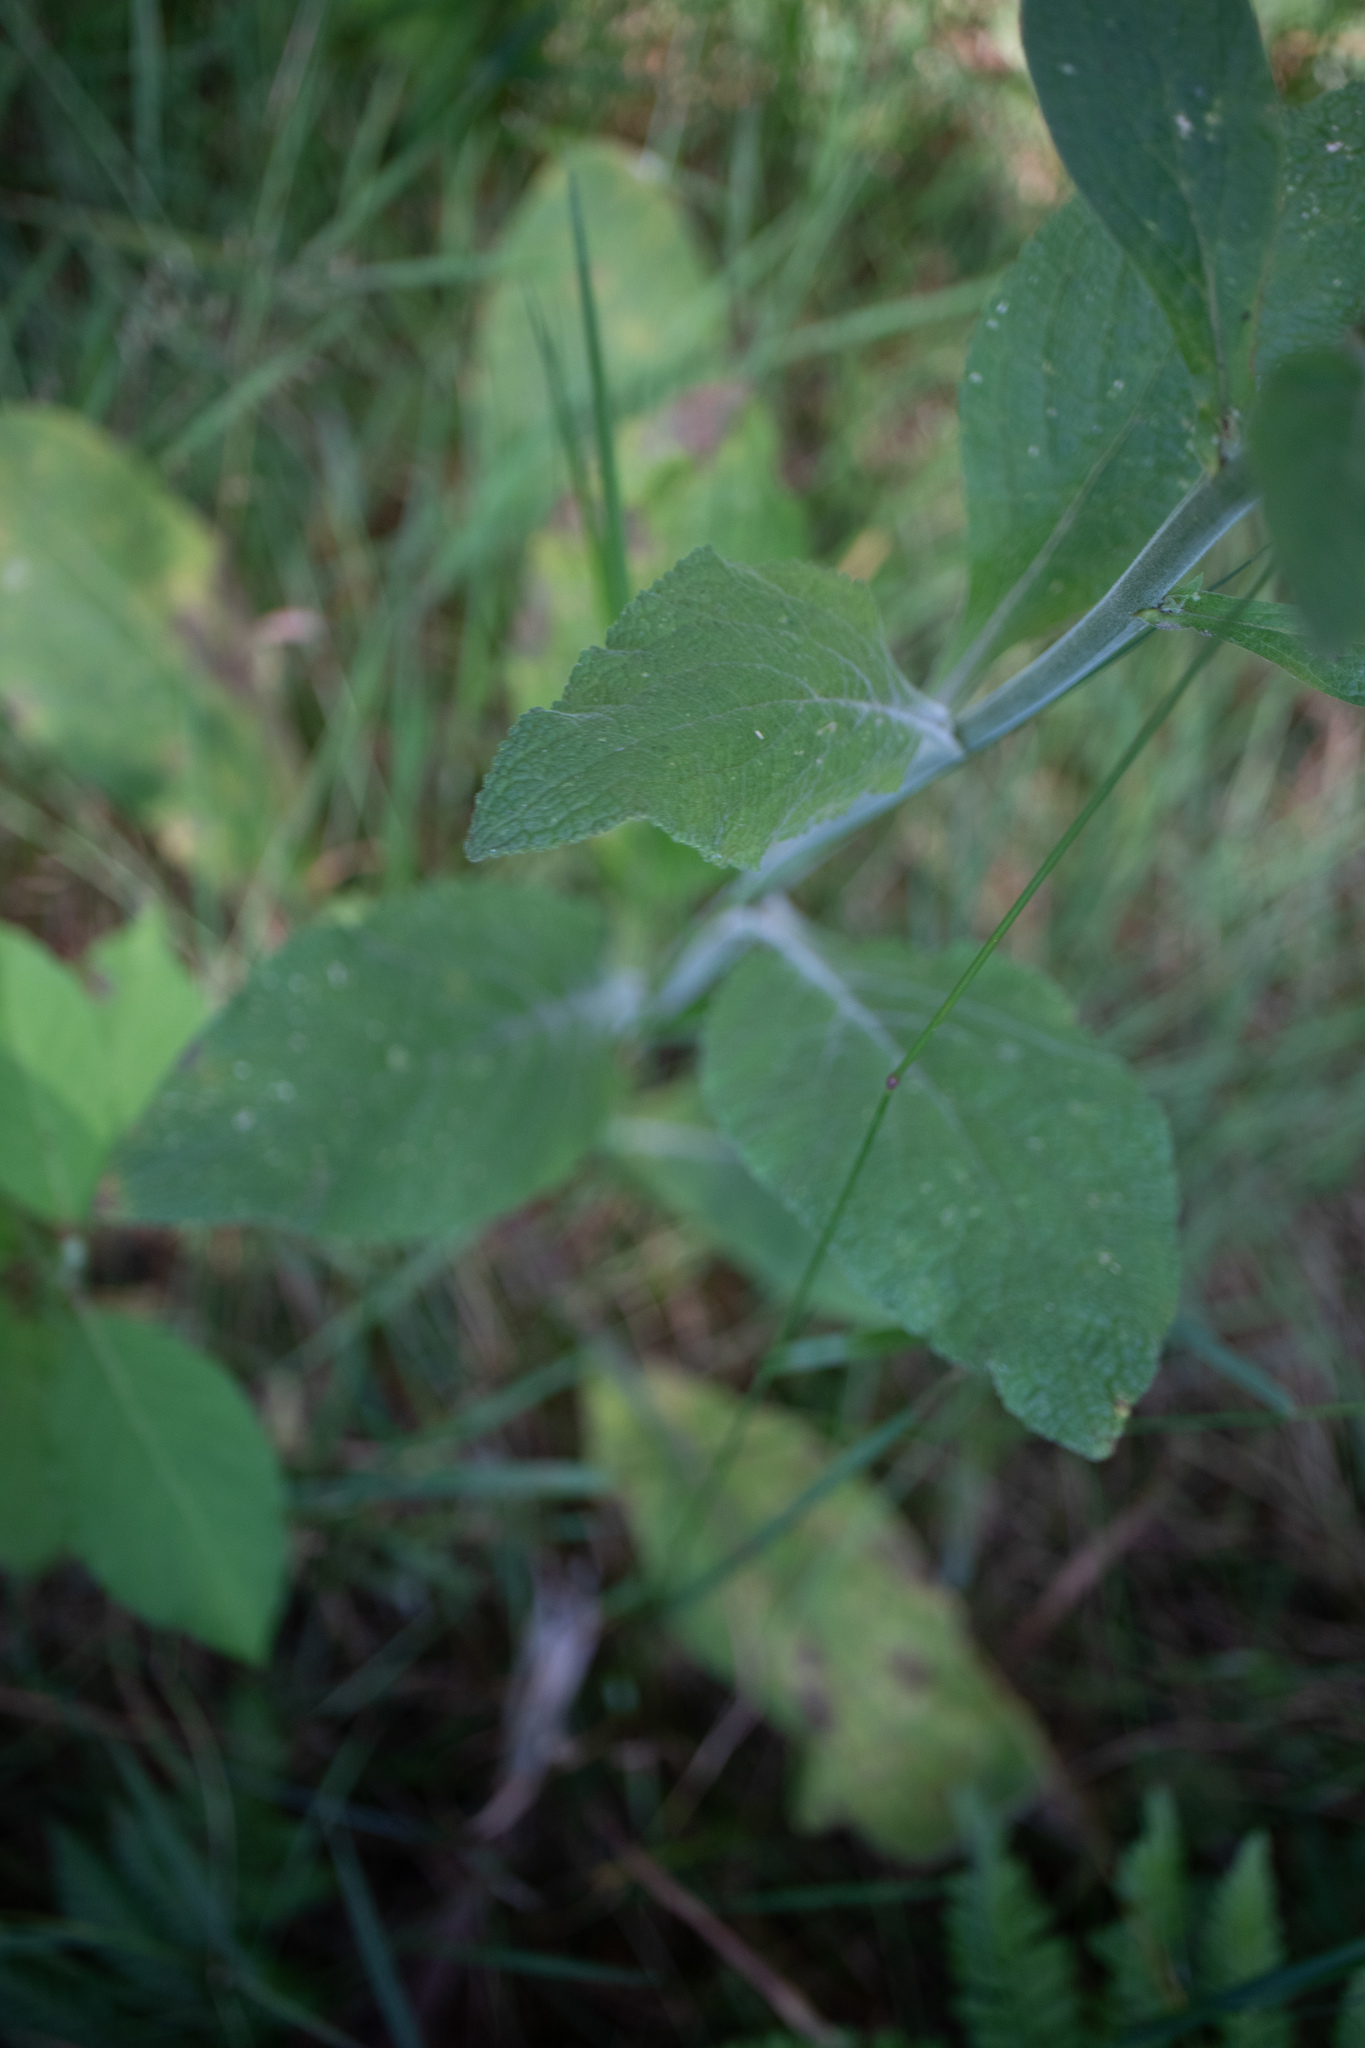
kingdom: Plantae
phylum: Tracheophyta
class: Magnoliopsida
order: Lamiales
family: Plantaginaceae
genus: Digitalis
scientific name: Digitalis purpurea
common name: Foxglove
